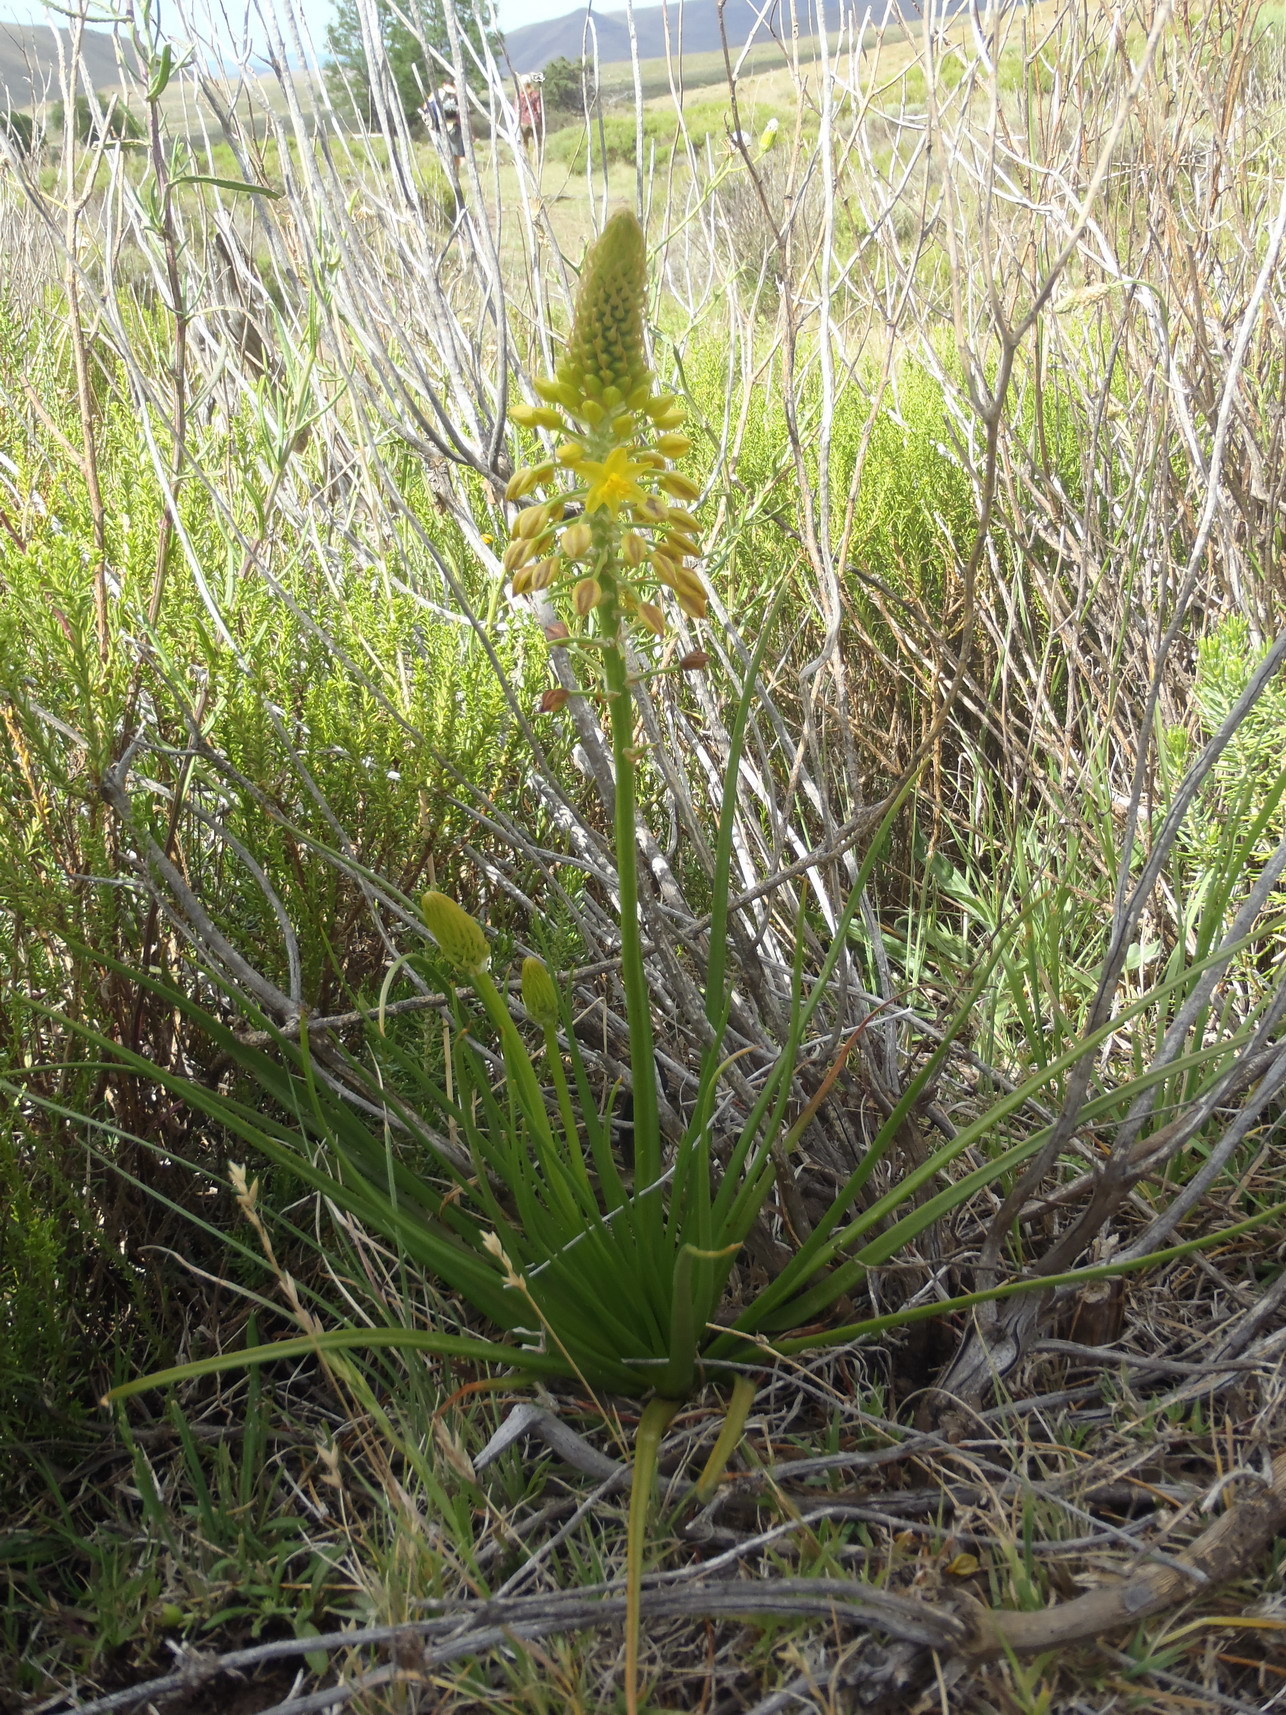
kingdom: Plantae
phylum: Tracheophyta
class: Liliopsida
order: Asparagales
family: Asphodelaceae
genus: Bulbine
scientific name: Bulbine abyssinica
